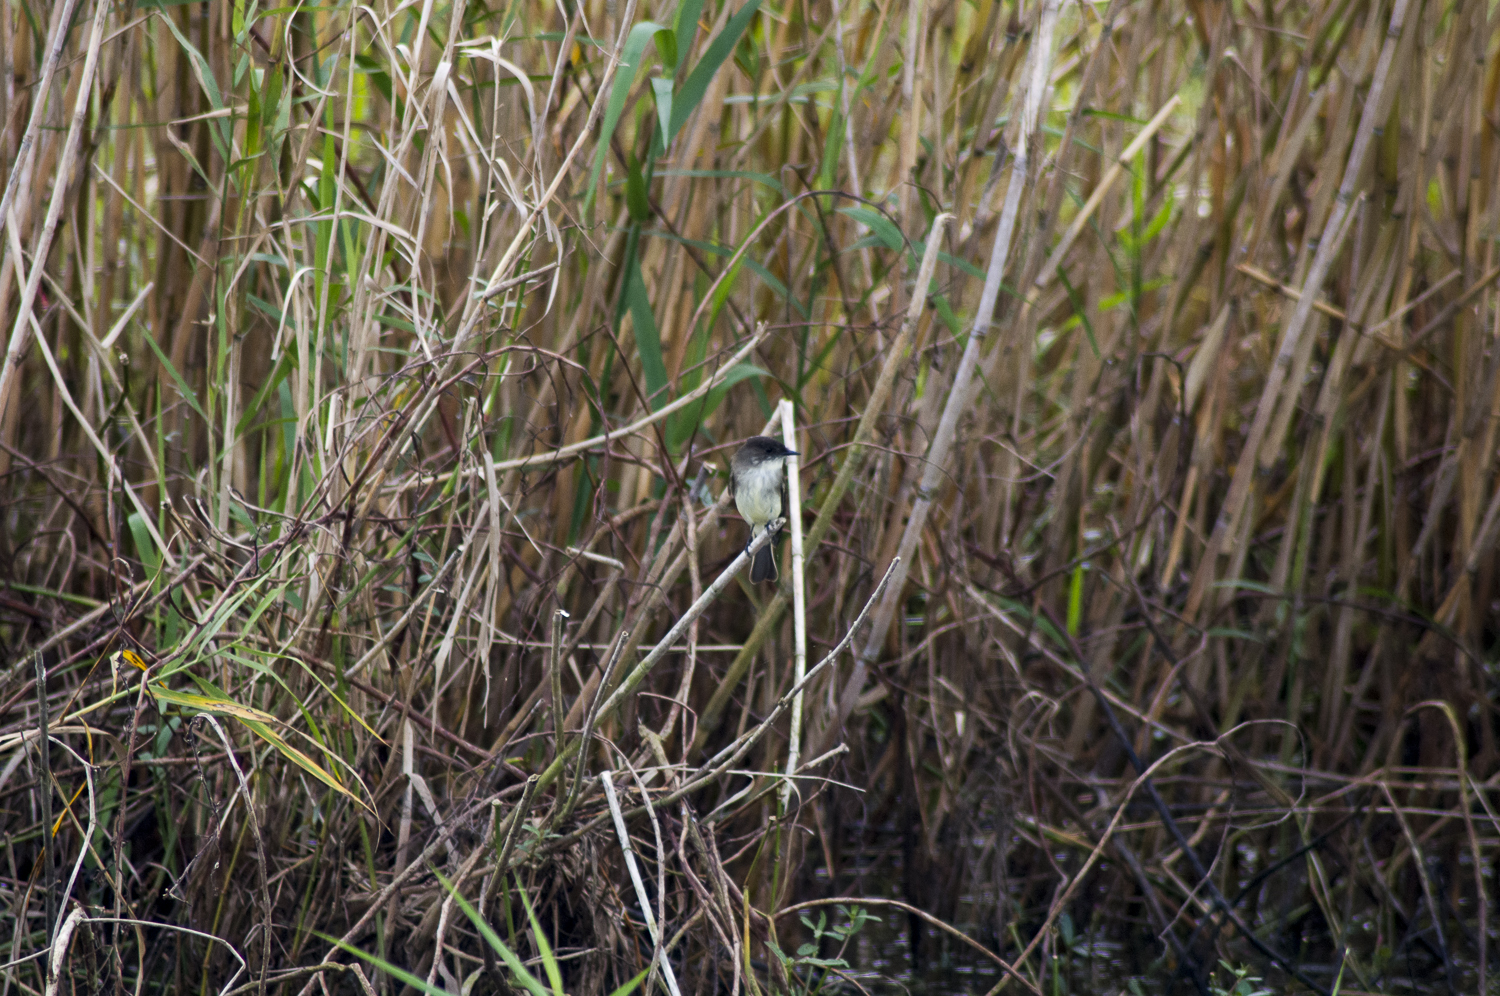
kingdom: Animalia
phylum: Chordata
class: Aves
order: Passeriformes
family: Tyrannidae
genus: Sayornis
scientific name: Sayornis phoebe
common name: Eastern phoebe
